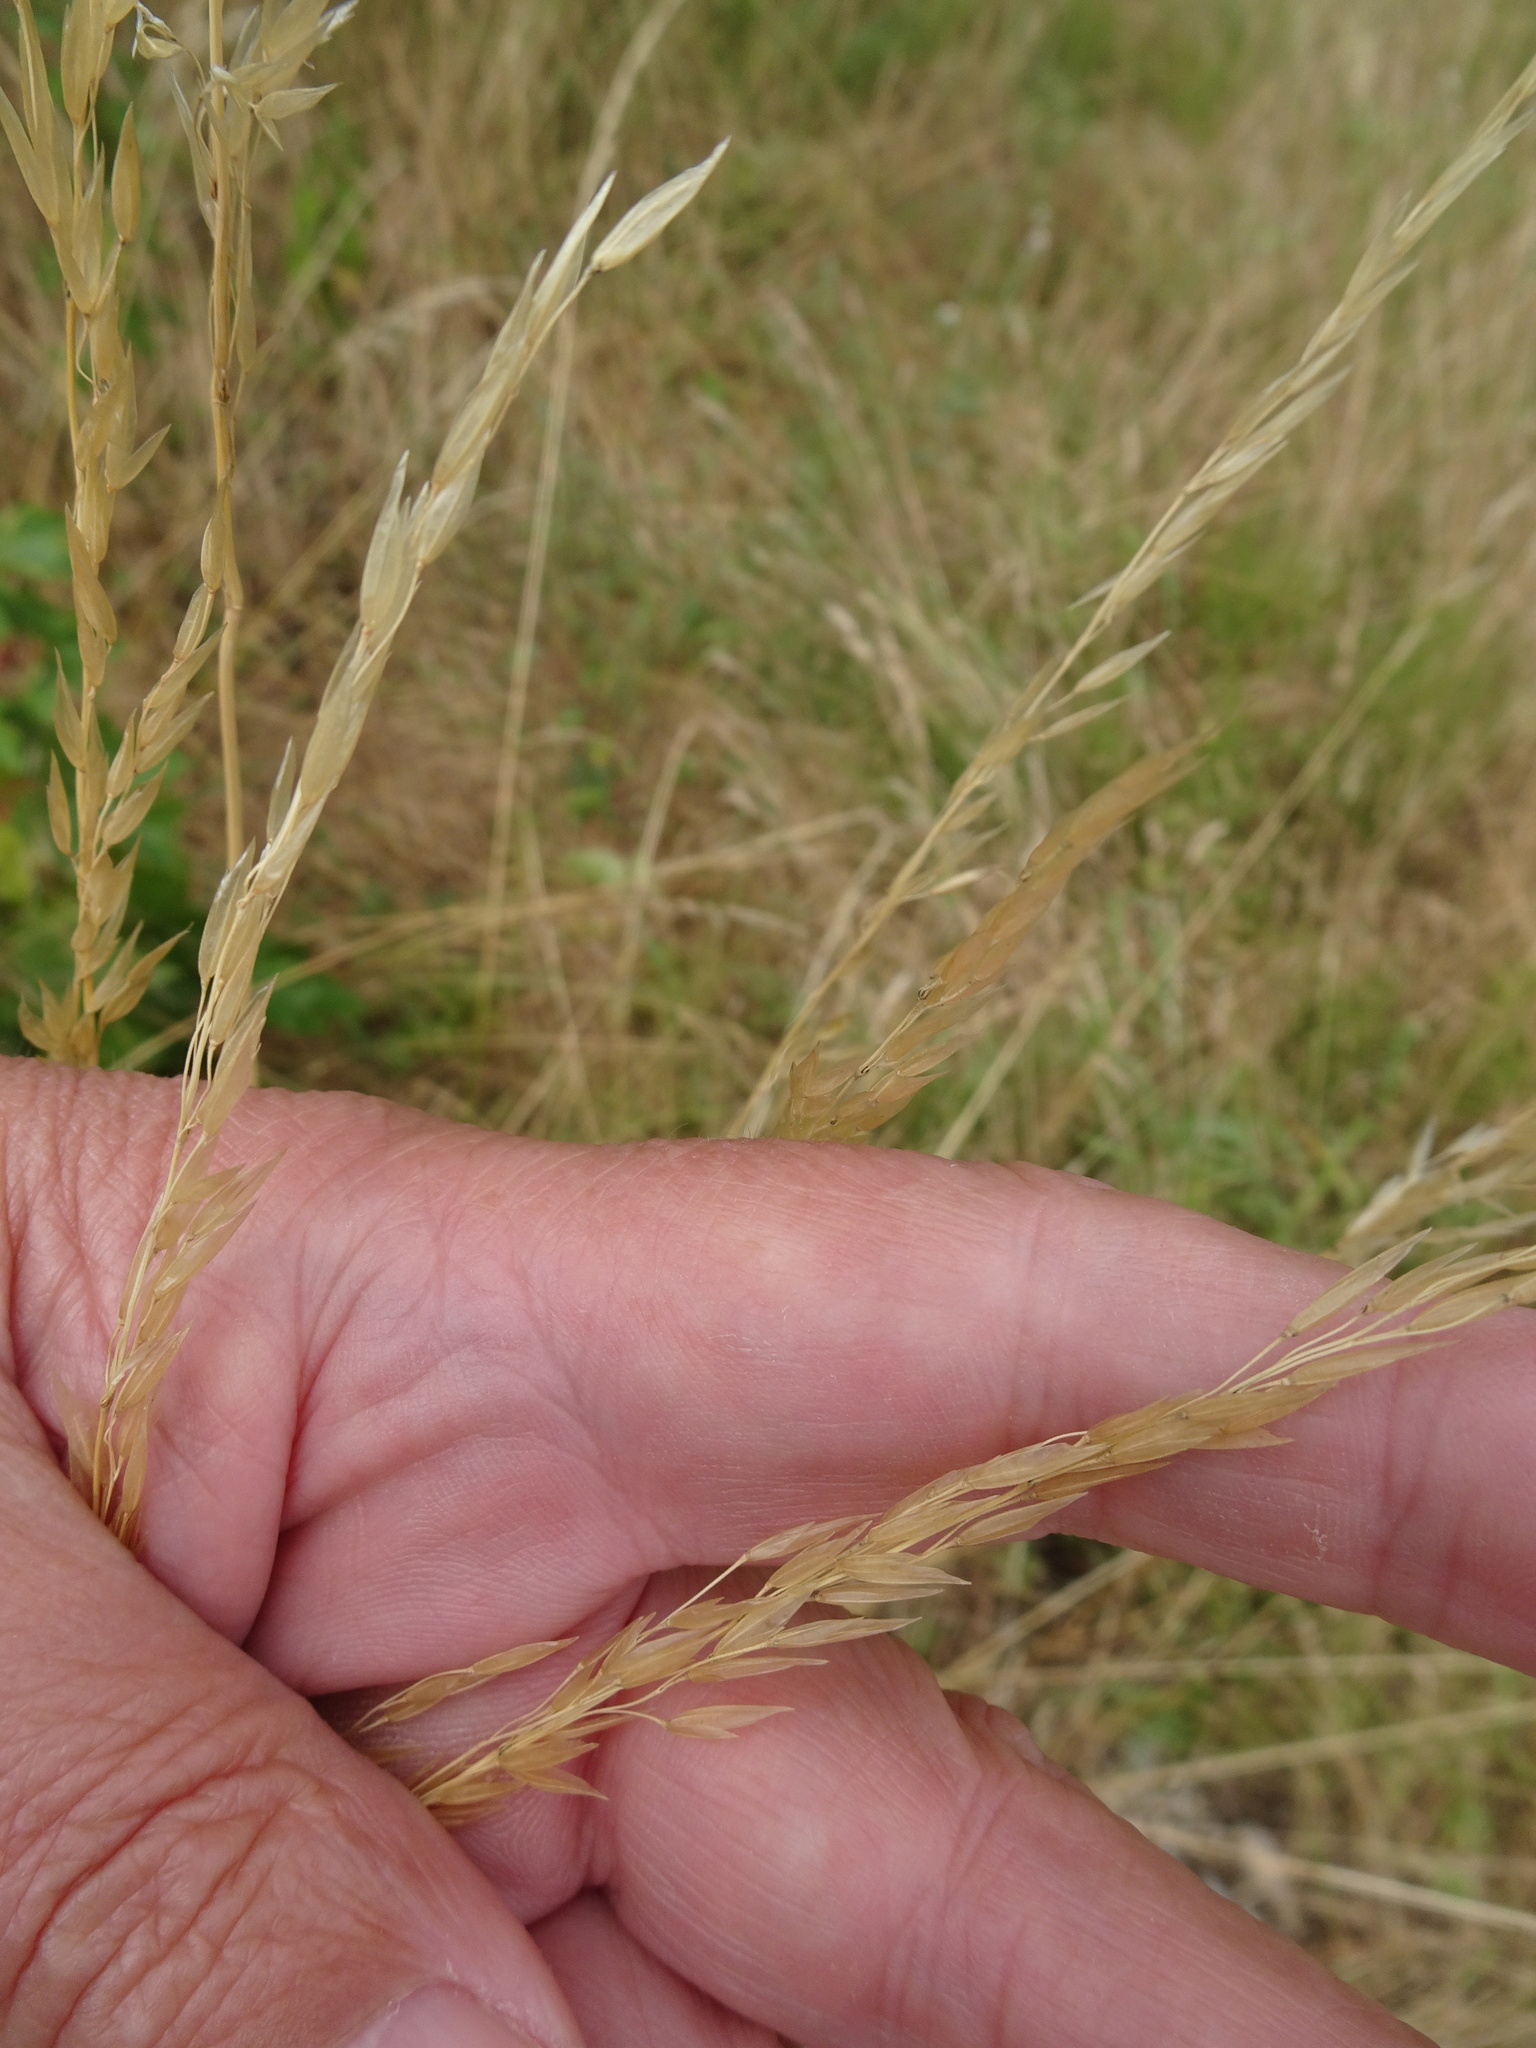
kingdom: Plantae
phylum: Tracheophyta
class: Liliopsida
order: Poales
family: Poaceae
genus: Arrhenatherum
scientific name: Arrhenatherum elatius
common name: Tall oatgrass
